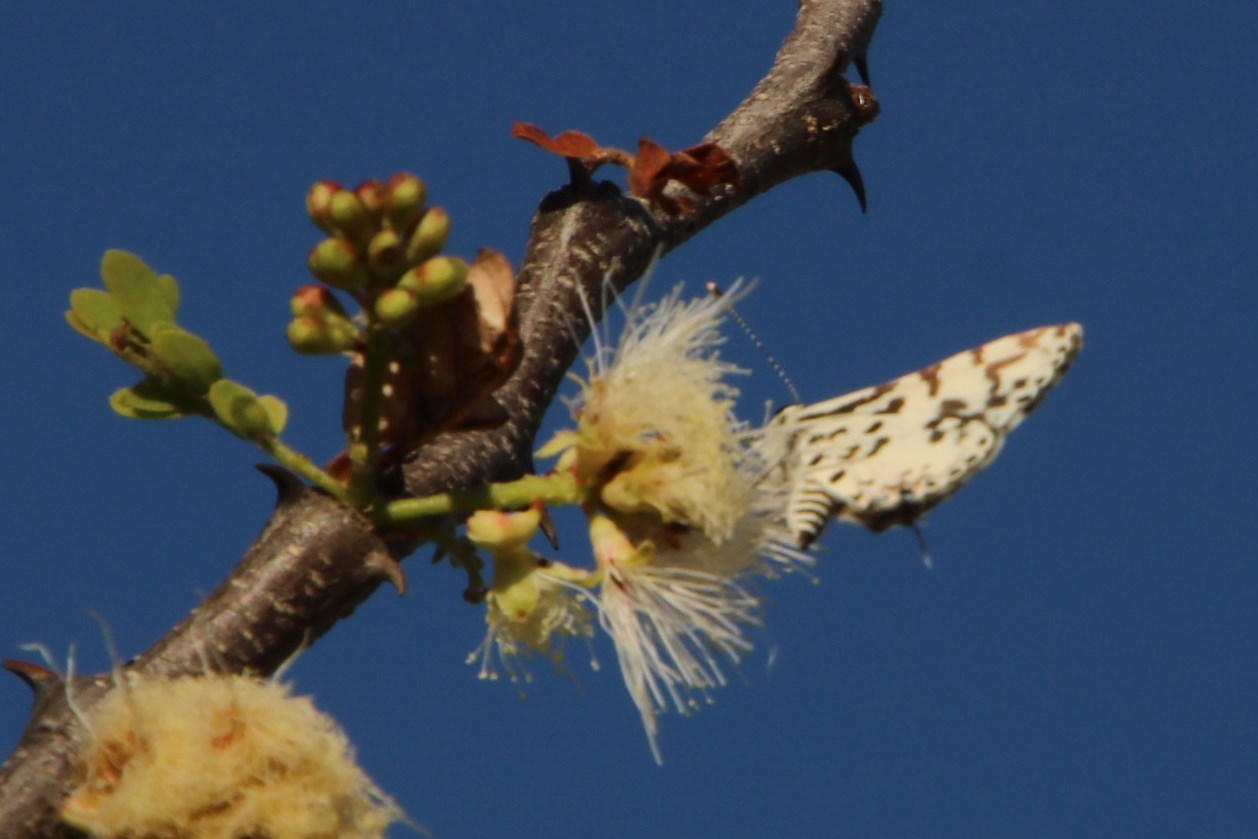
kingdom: Animalia
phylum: Arthropoda
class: Insecta
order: Lepidoptera
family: Lycaenidae
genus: Castalius
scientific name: Castalius melaena
